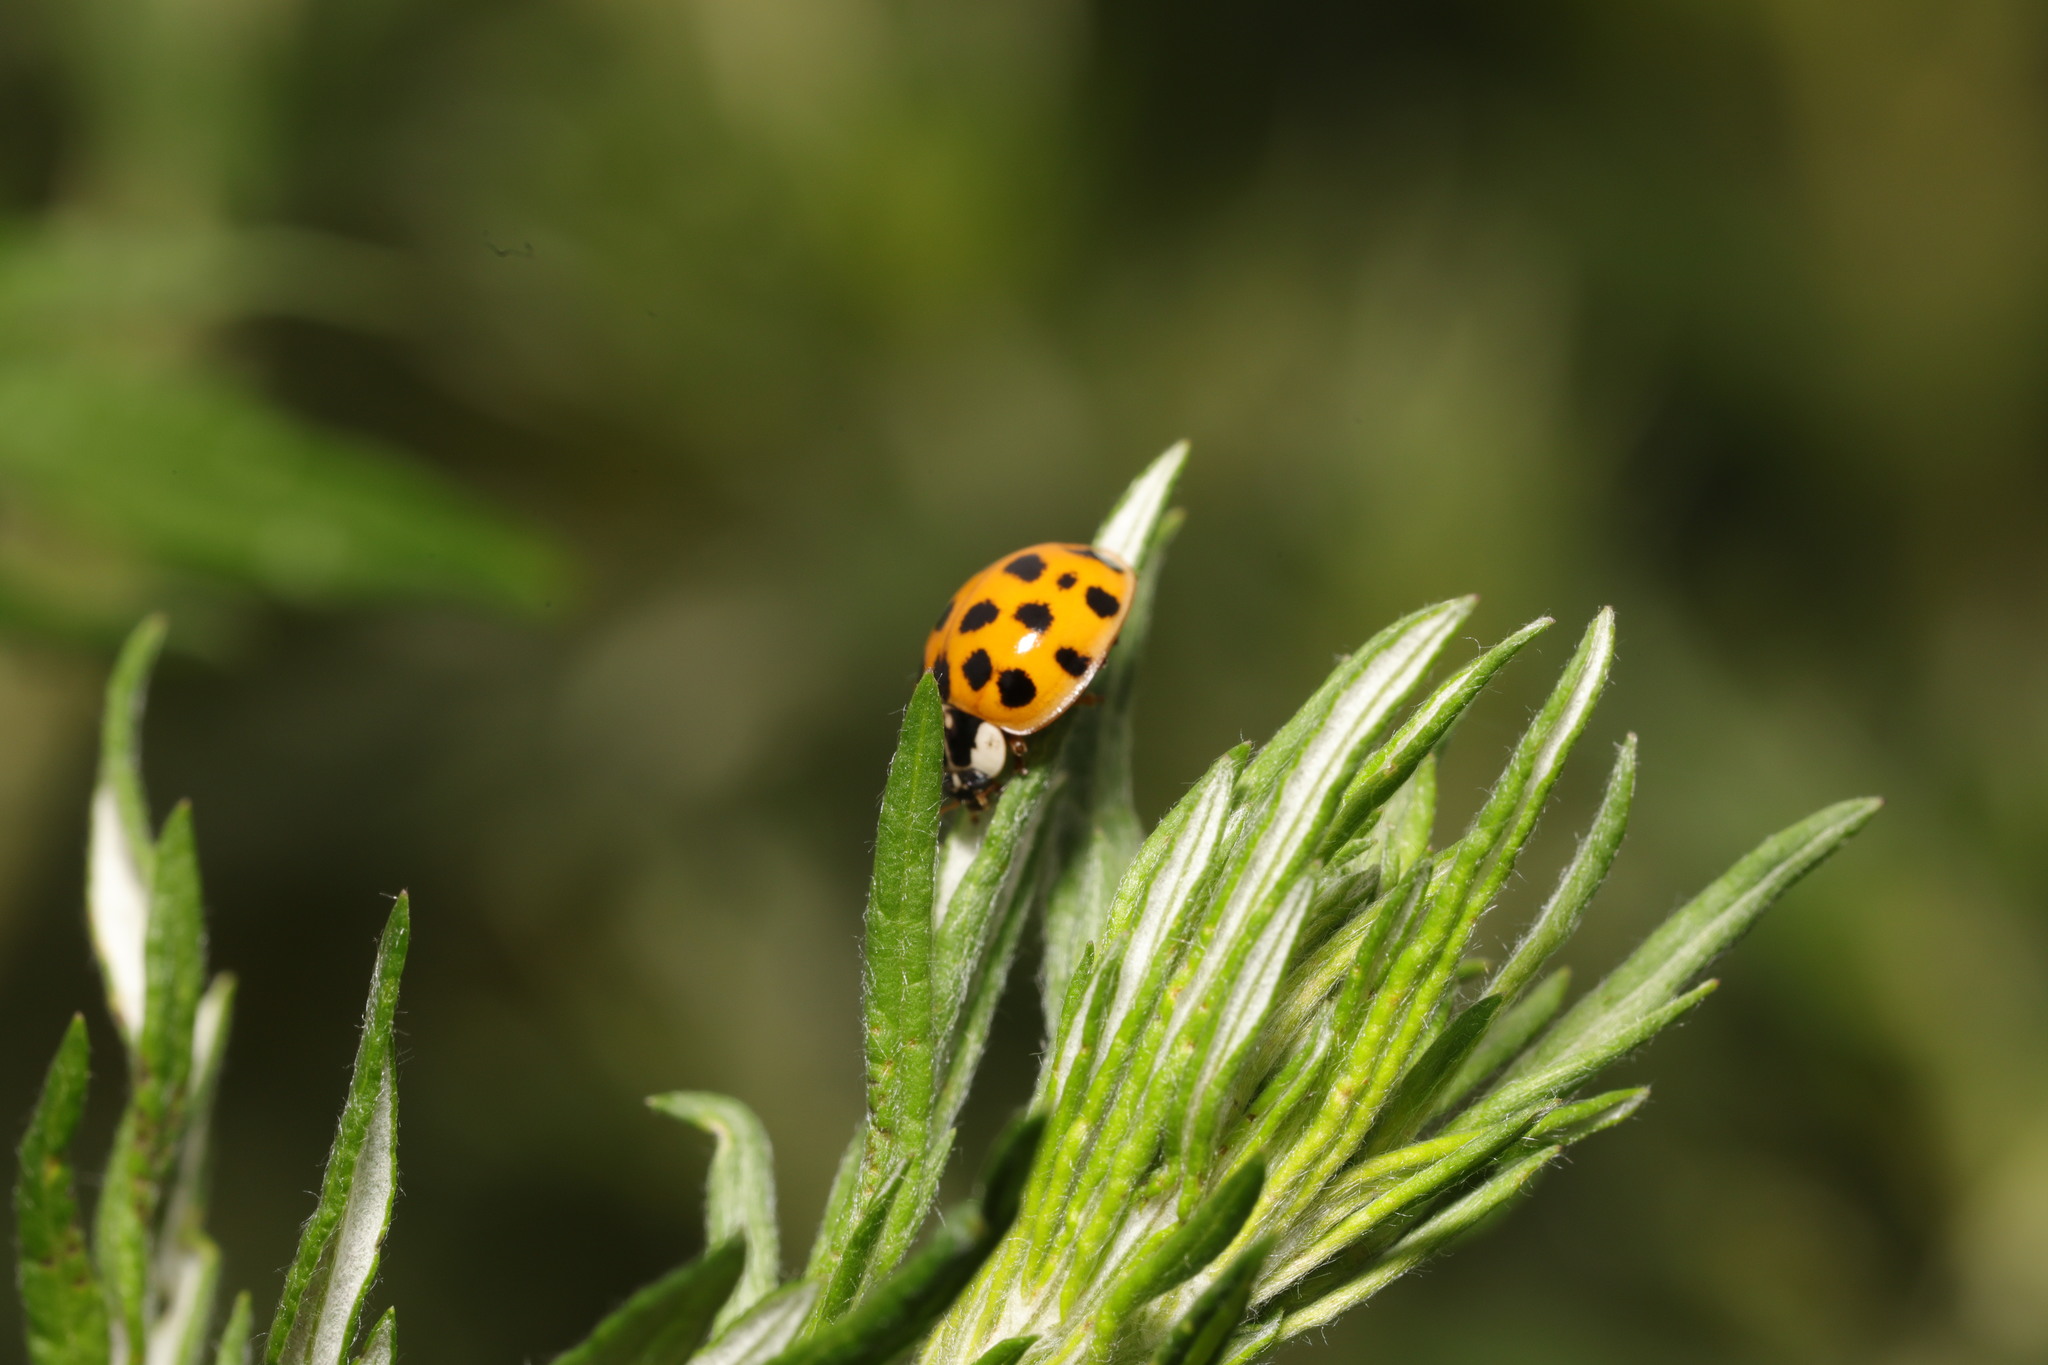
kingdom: Animalia
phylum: Arthropoda
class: Insecta
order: Coleoptera
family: Coccinellidae
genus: Harmonia
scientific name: Harmonia axyridis
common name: Harlequin ladybird
